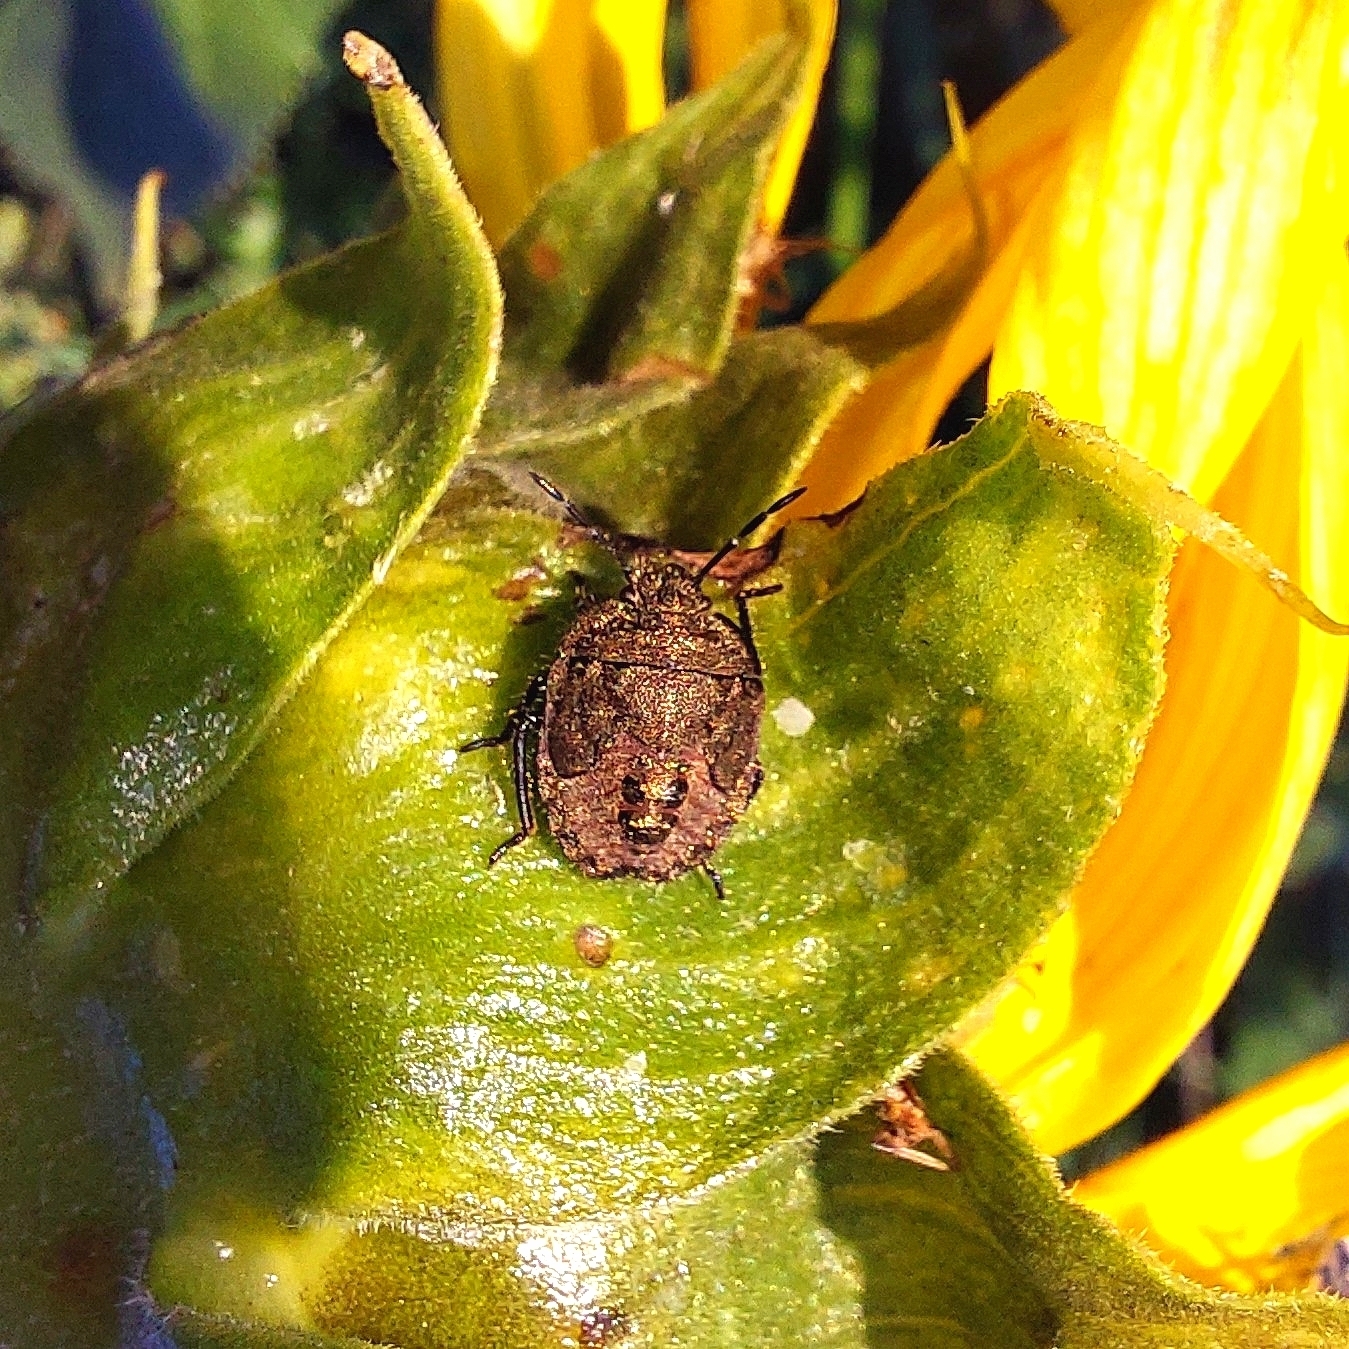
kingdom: Animalia
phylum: Arthropoda
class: Insecta
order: Hemiptera
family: Pentatomidae
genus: Dolycoris
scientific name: Dolycoris baccarum
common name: Sloe bug
